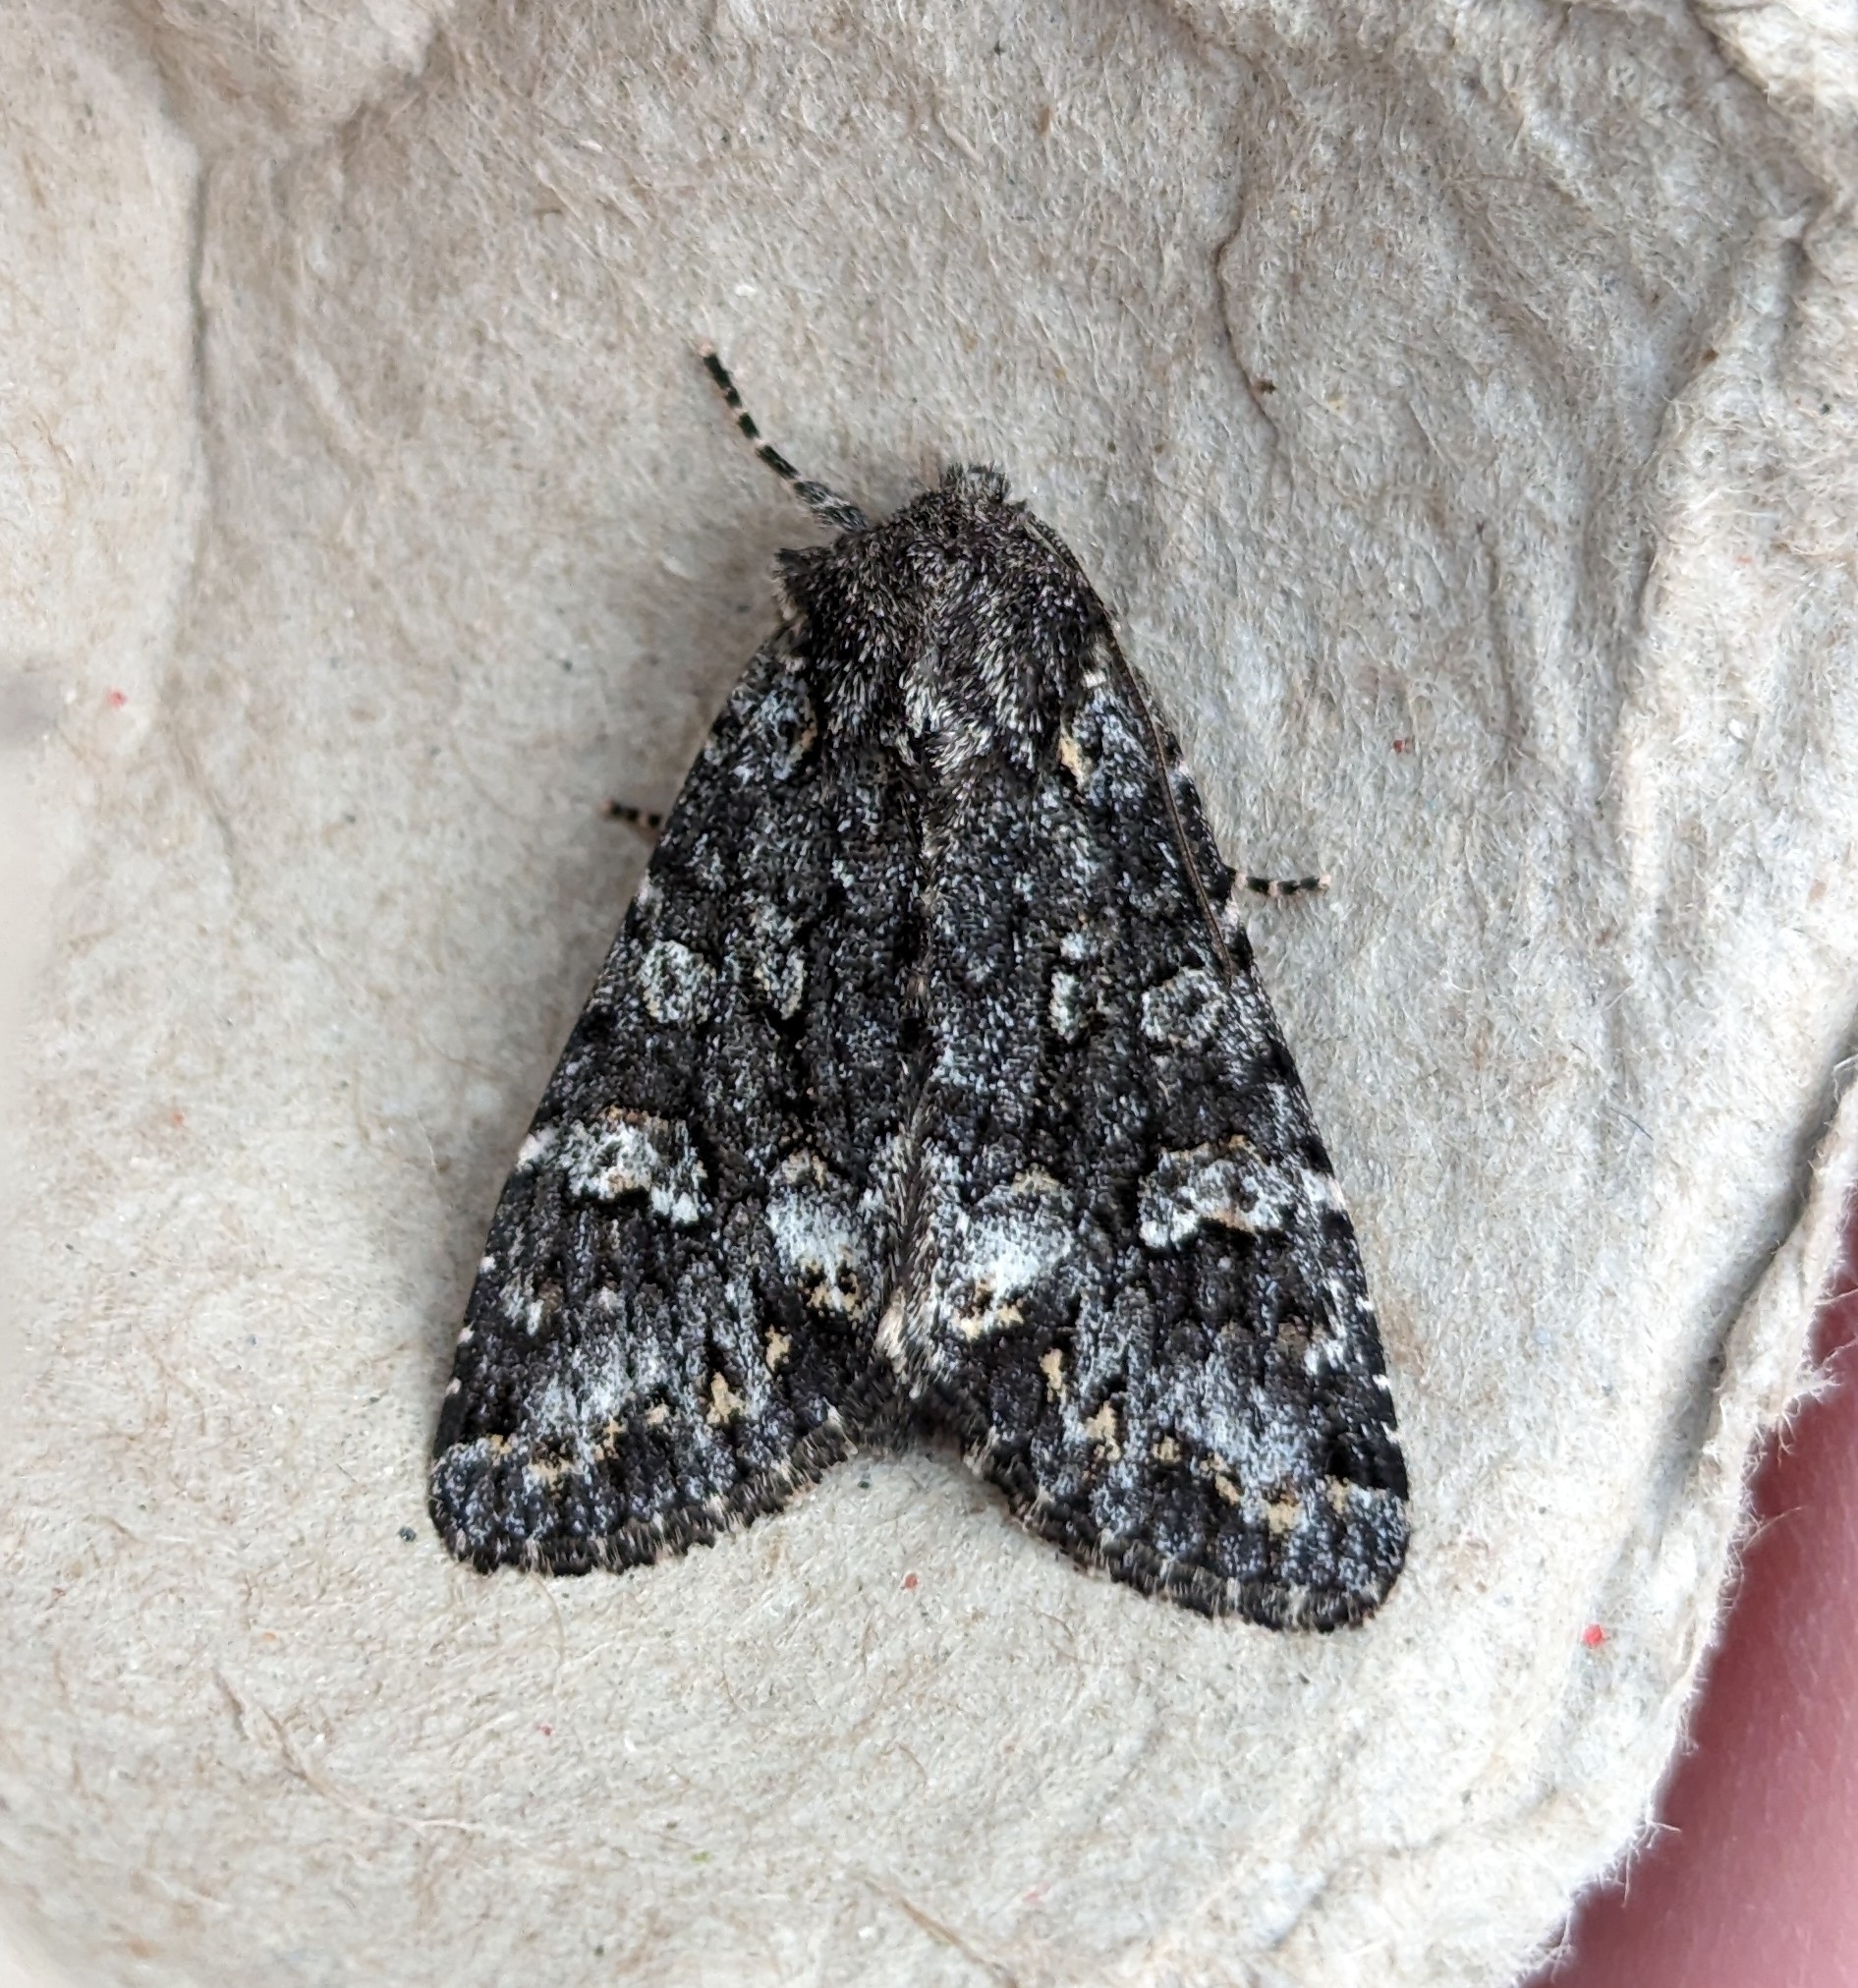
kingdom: Animalia
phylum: Arthropoda
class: Insecta
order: Lepidoptera
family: Noctuidae
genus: Papestra
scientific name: Papestra cristifera
